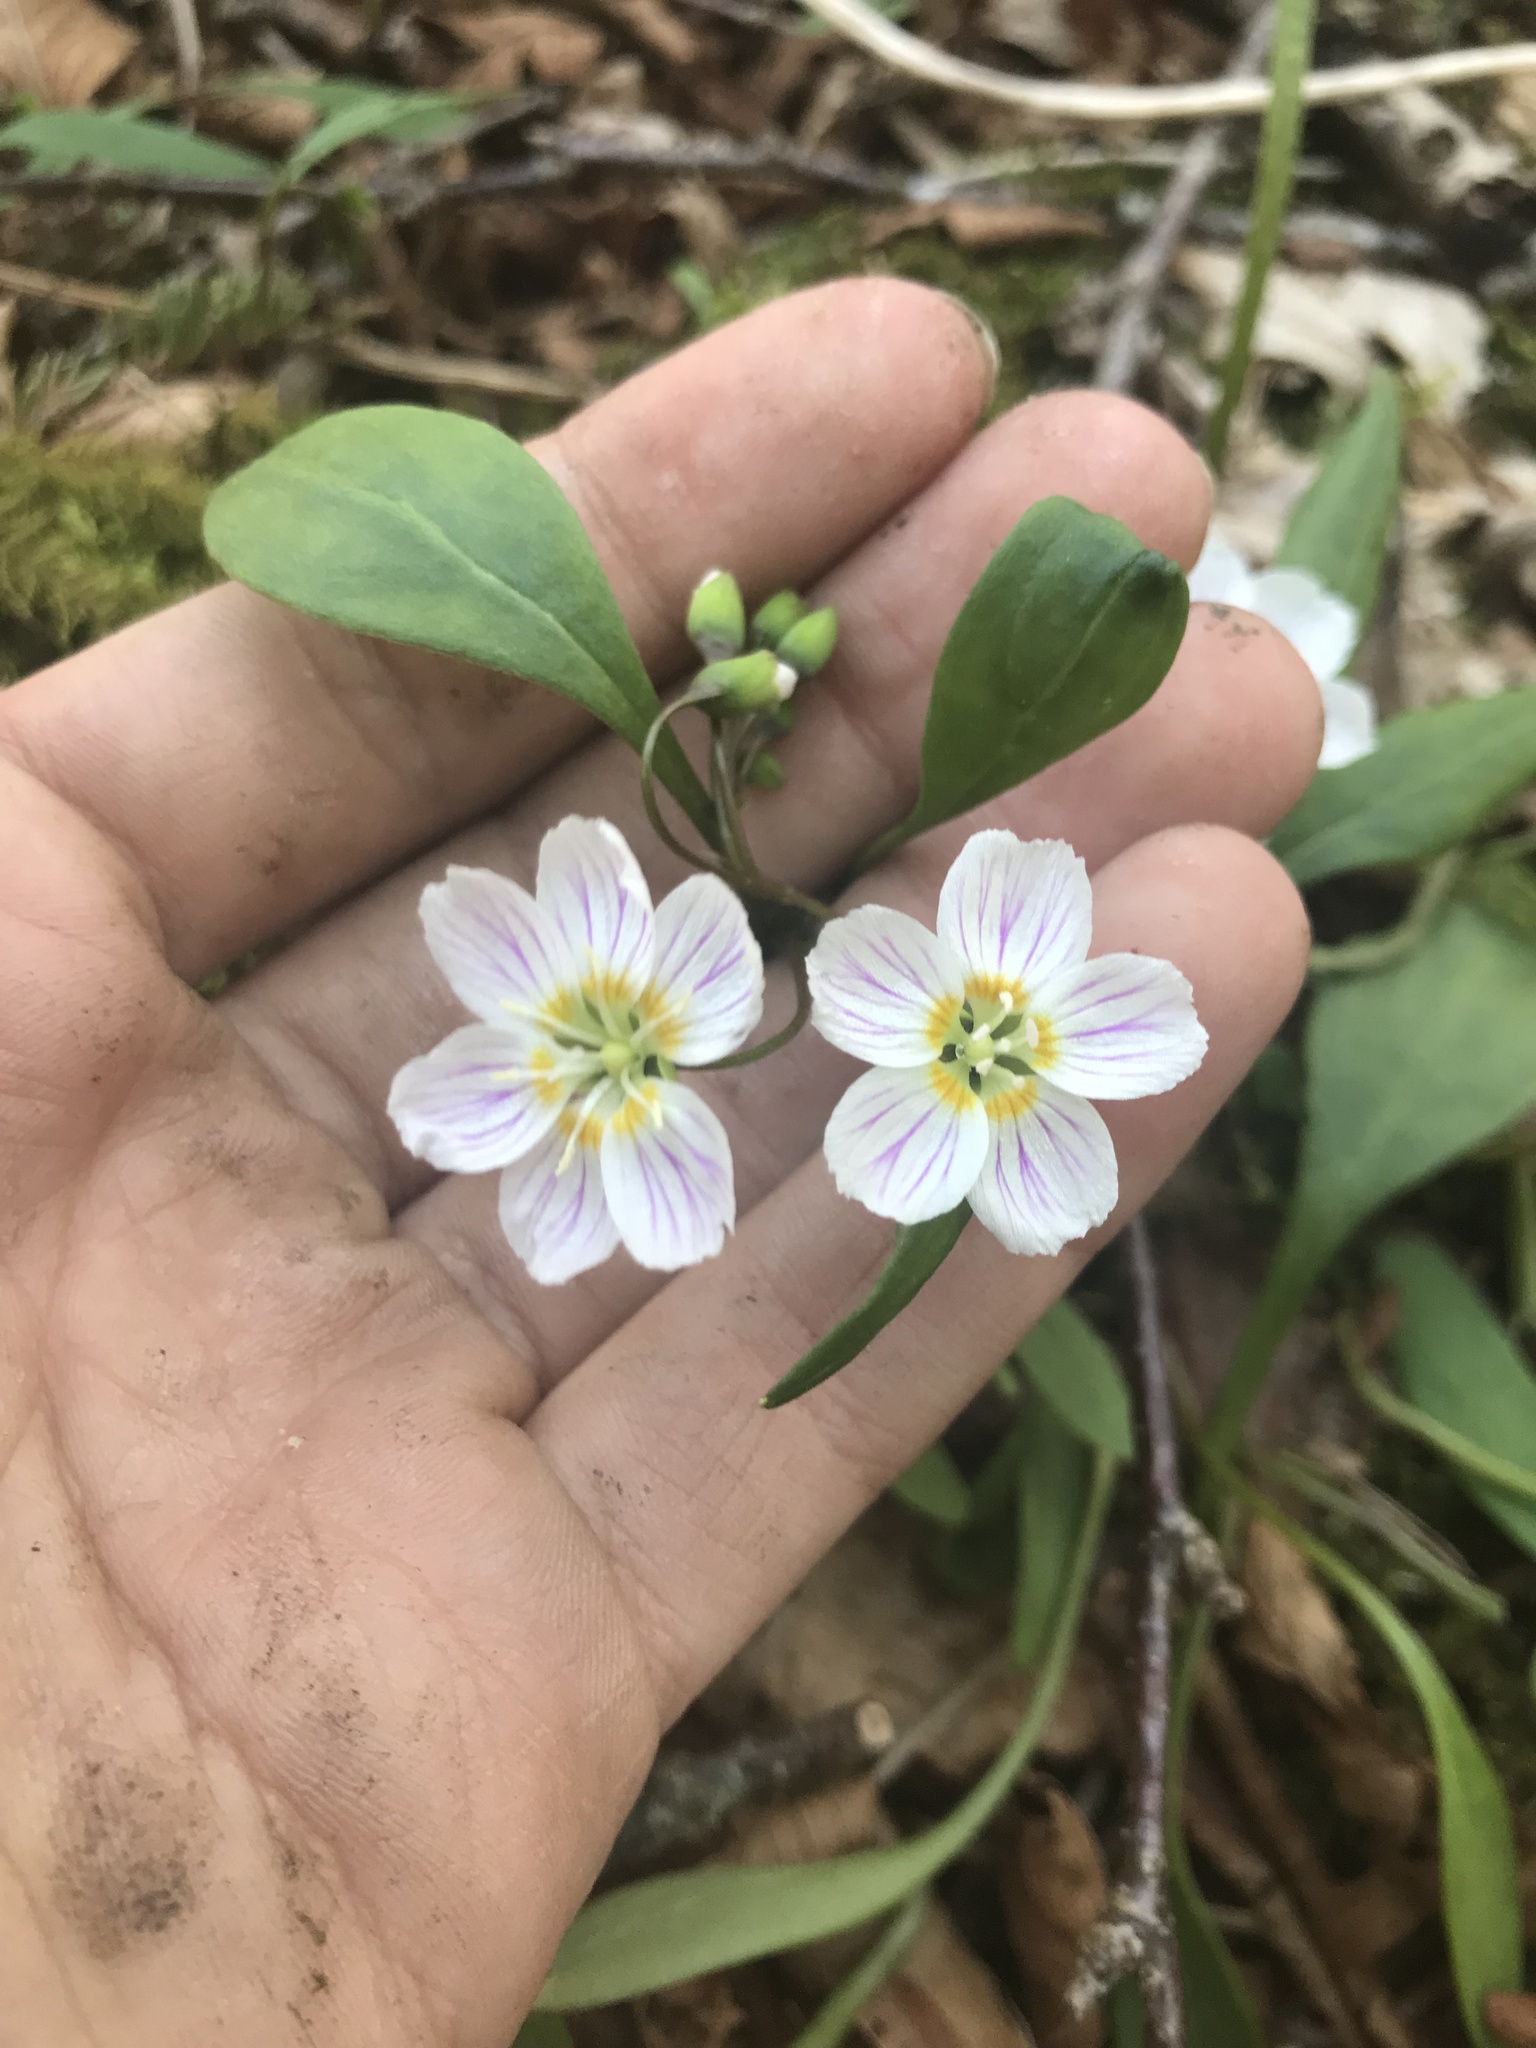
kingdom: Plantae
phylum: Tracheophyta
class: Magnoliopsida
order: Caryophyllales
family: Montiaceae
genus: Claytonia
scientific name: Claytonia caroliniana
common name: Carolina spring beauty
